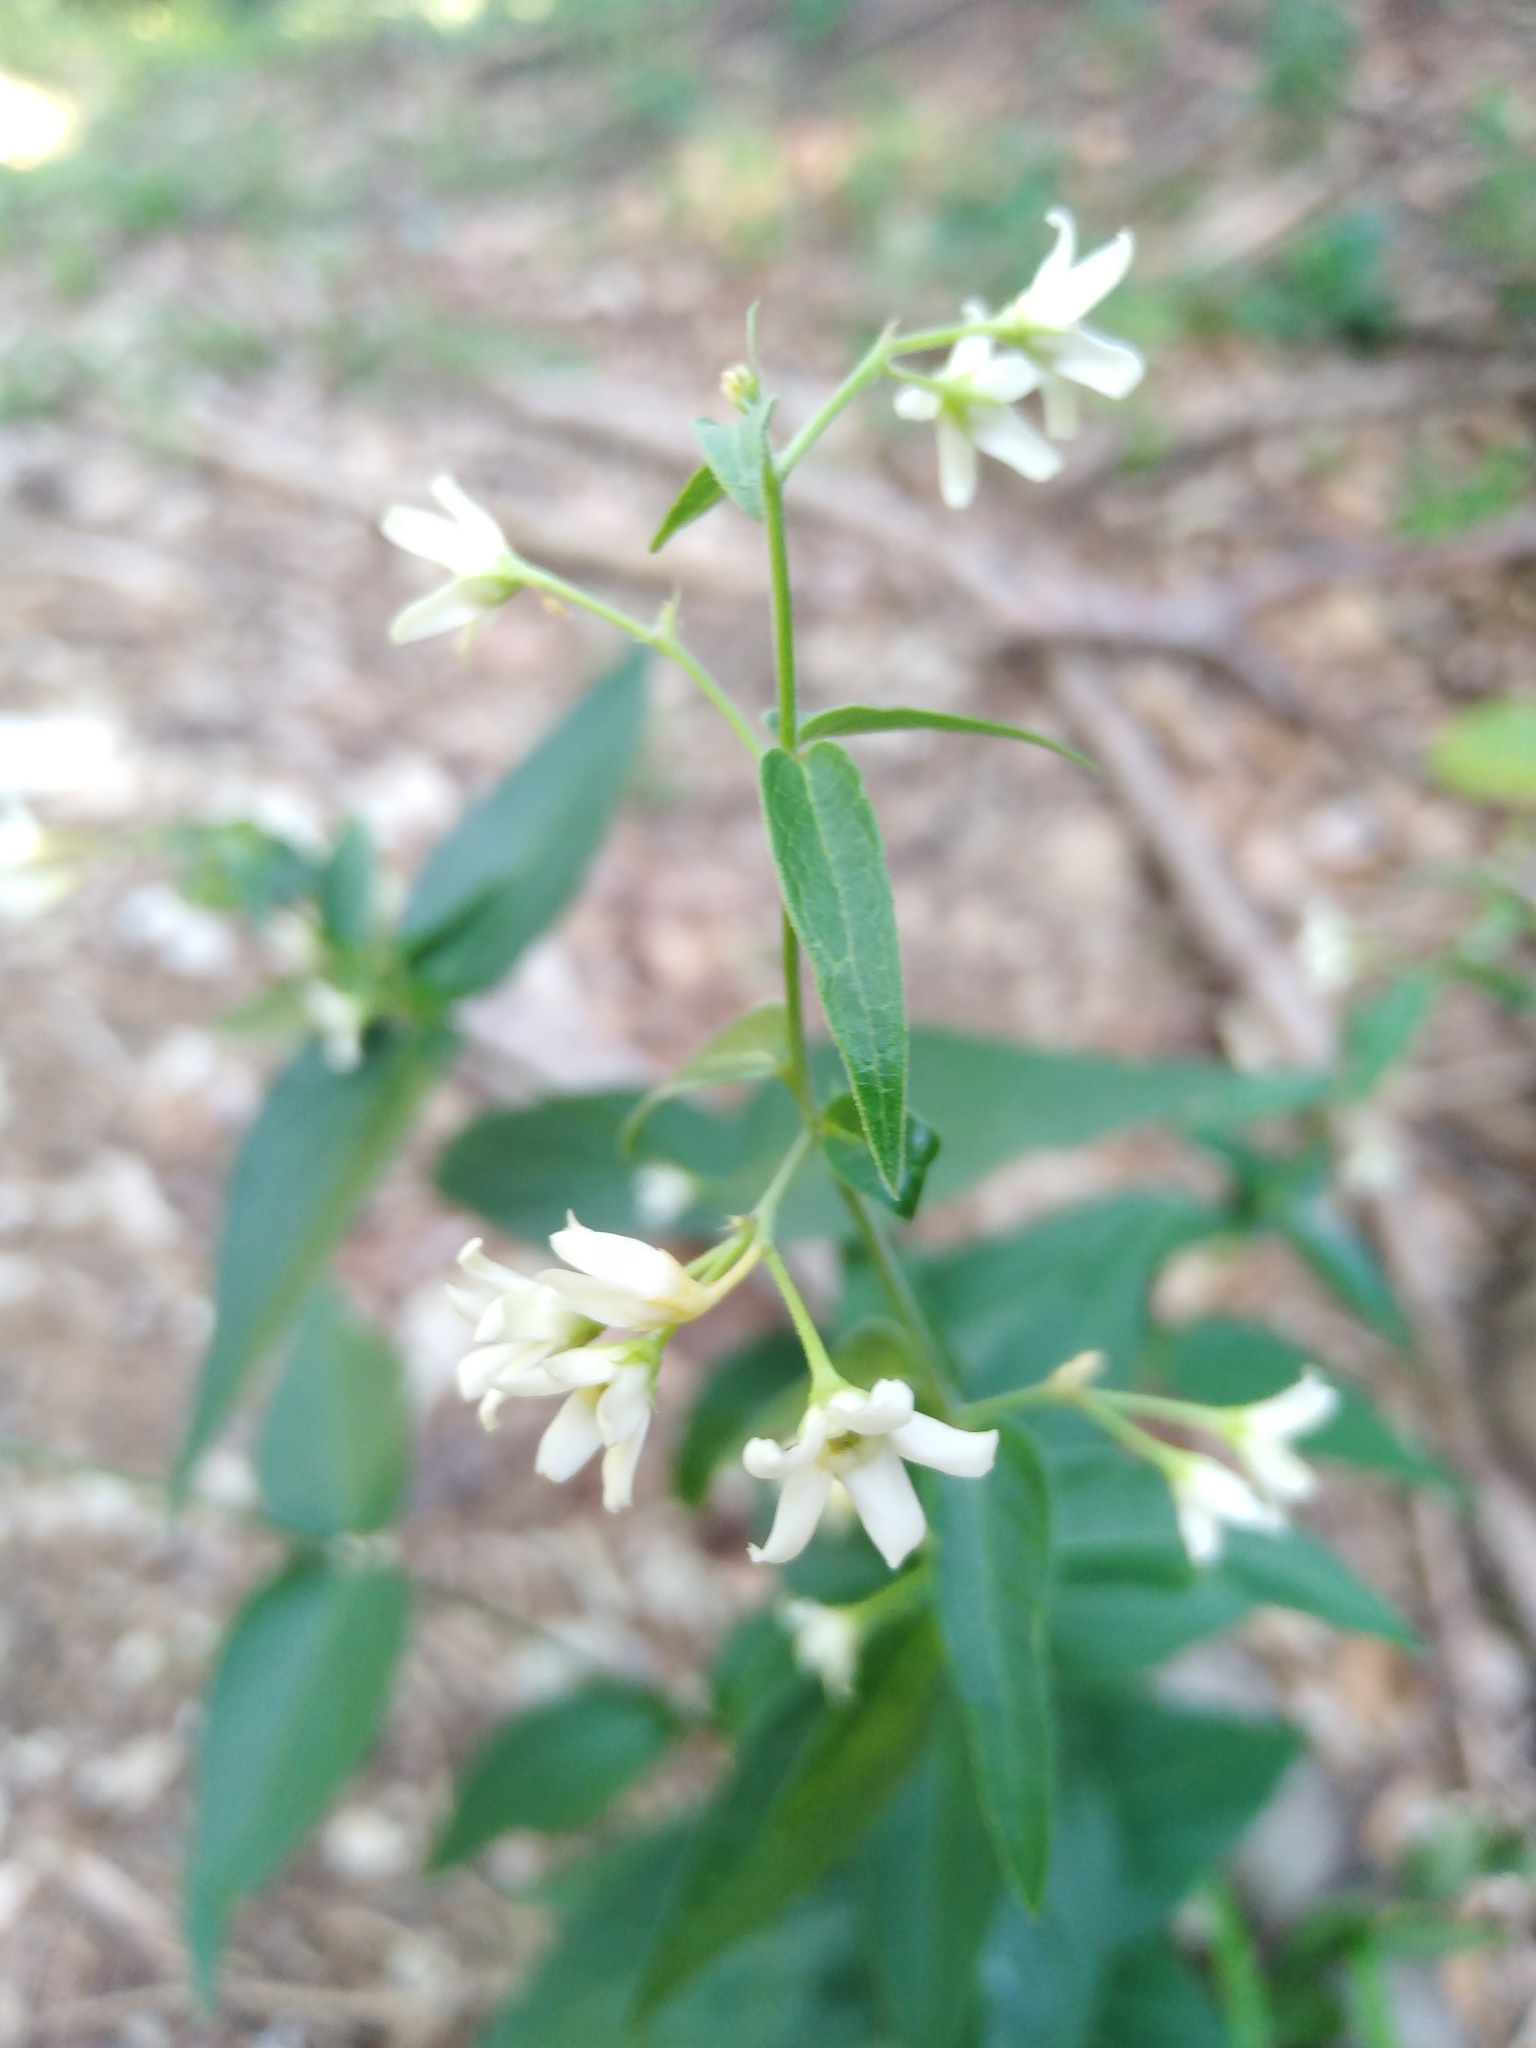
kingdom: Plantae
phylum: Tracheophyta
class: Magnoliopsida
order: Gentianales
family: Apocynaceae
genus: Vincetoxicum
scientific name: Vincetoxicum hirundinaria
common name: White swallowwort
